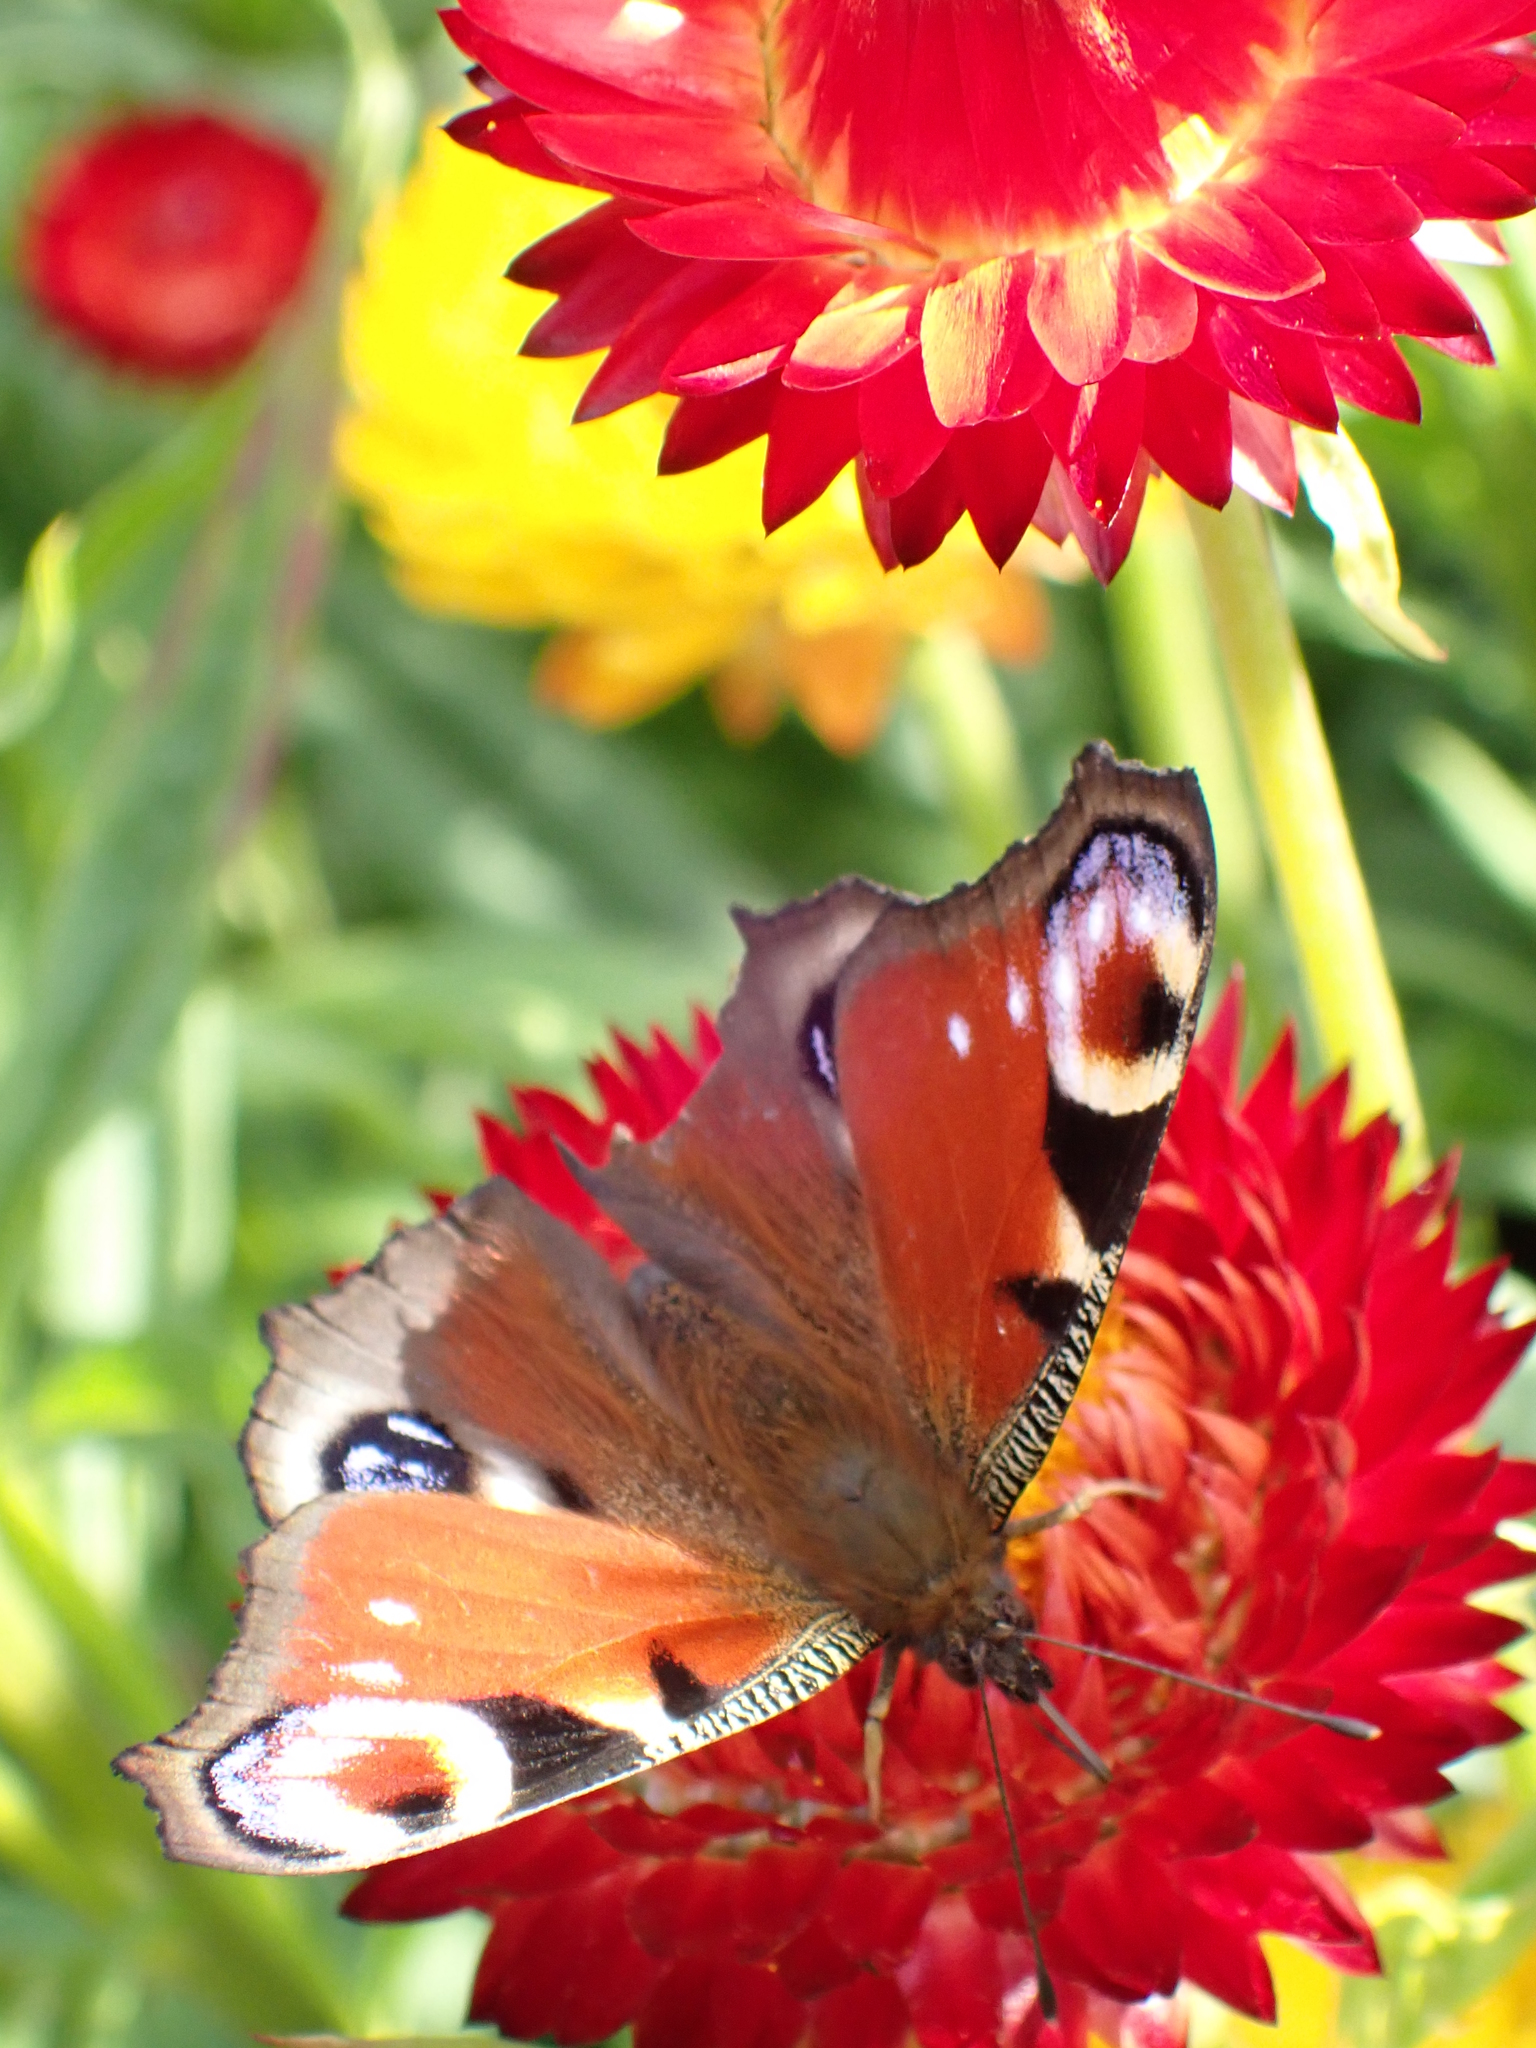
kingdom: Animalia
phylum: Arthropoda
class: Insecta
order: Lepidoptera
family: Nymphalidae
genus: Aglais
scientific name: Aglais io
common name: Peacock
